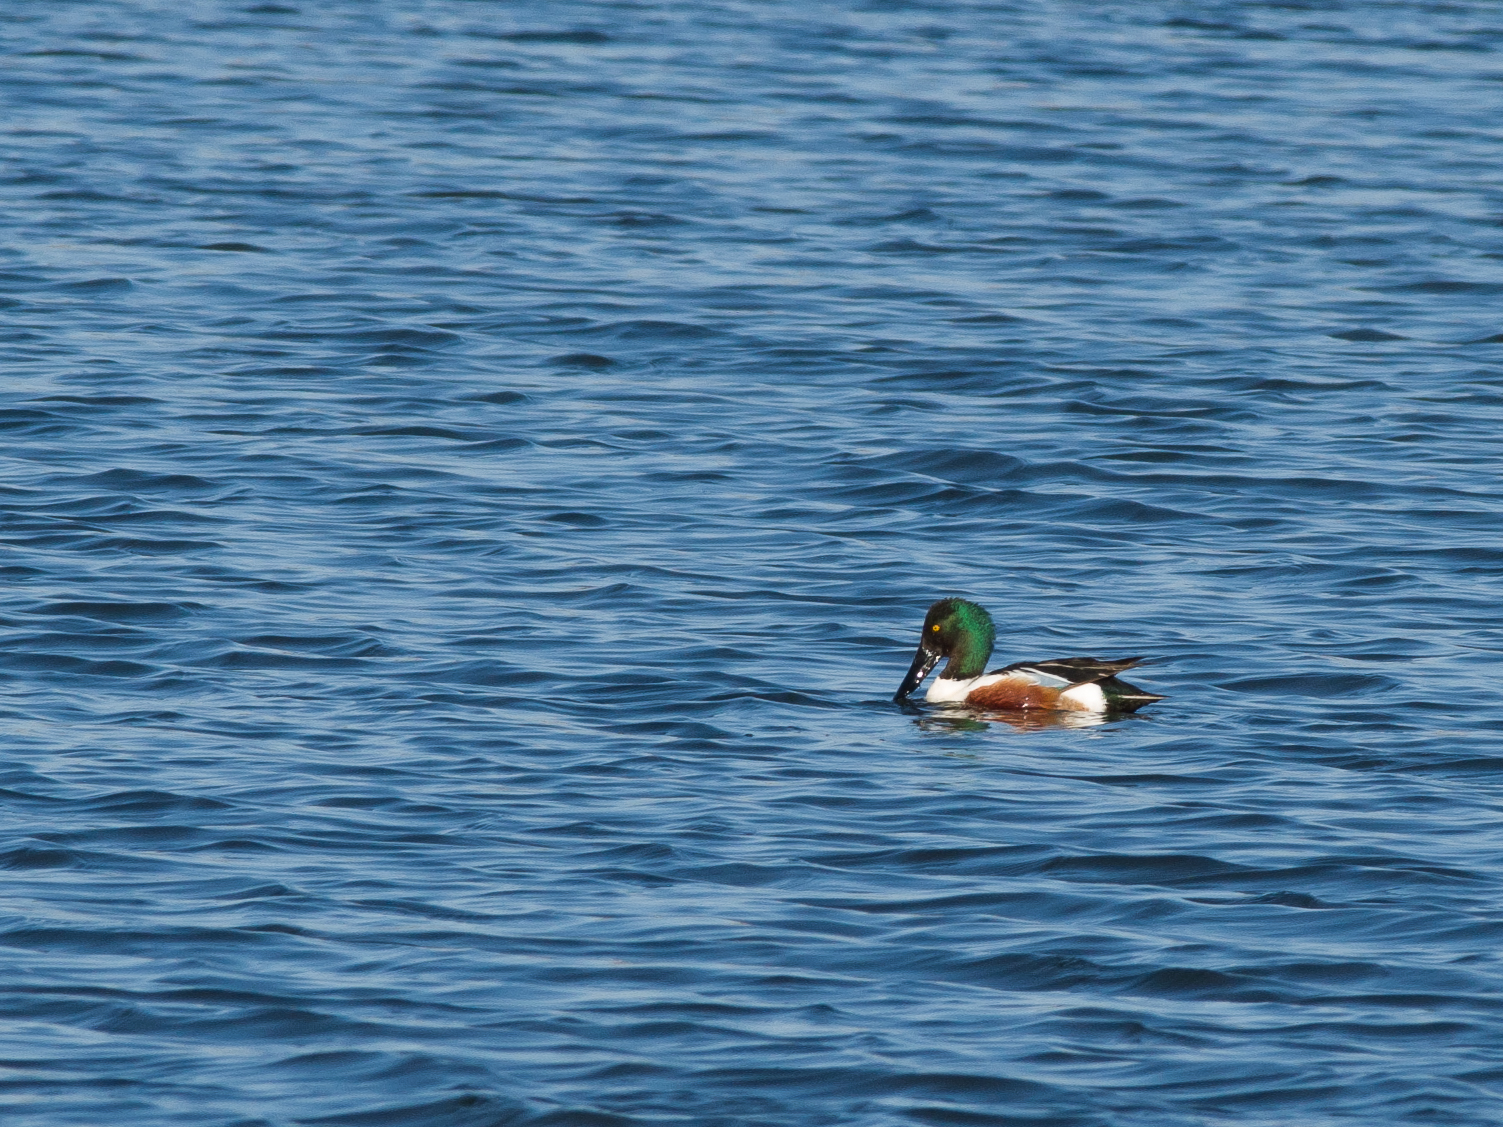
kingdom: Animalia
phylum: Chordata
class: Aves
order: Anseriformes
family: Anatidae
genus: Spatula
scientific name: Spatula clypeata
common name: Northern shoveler
